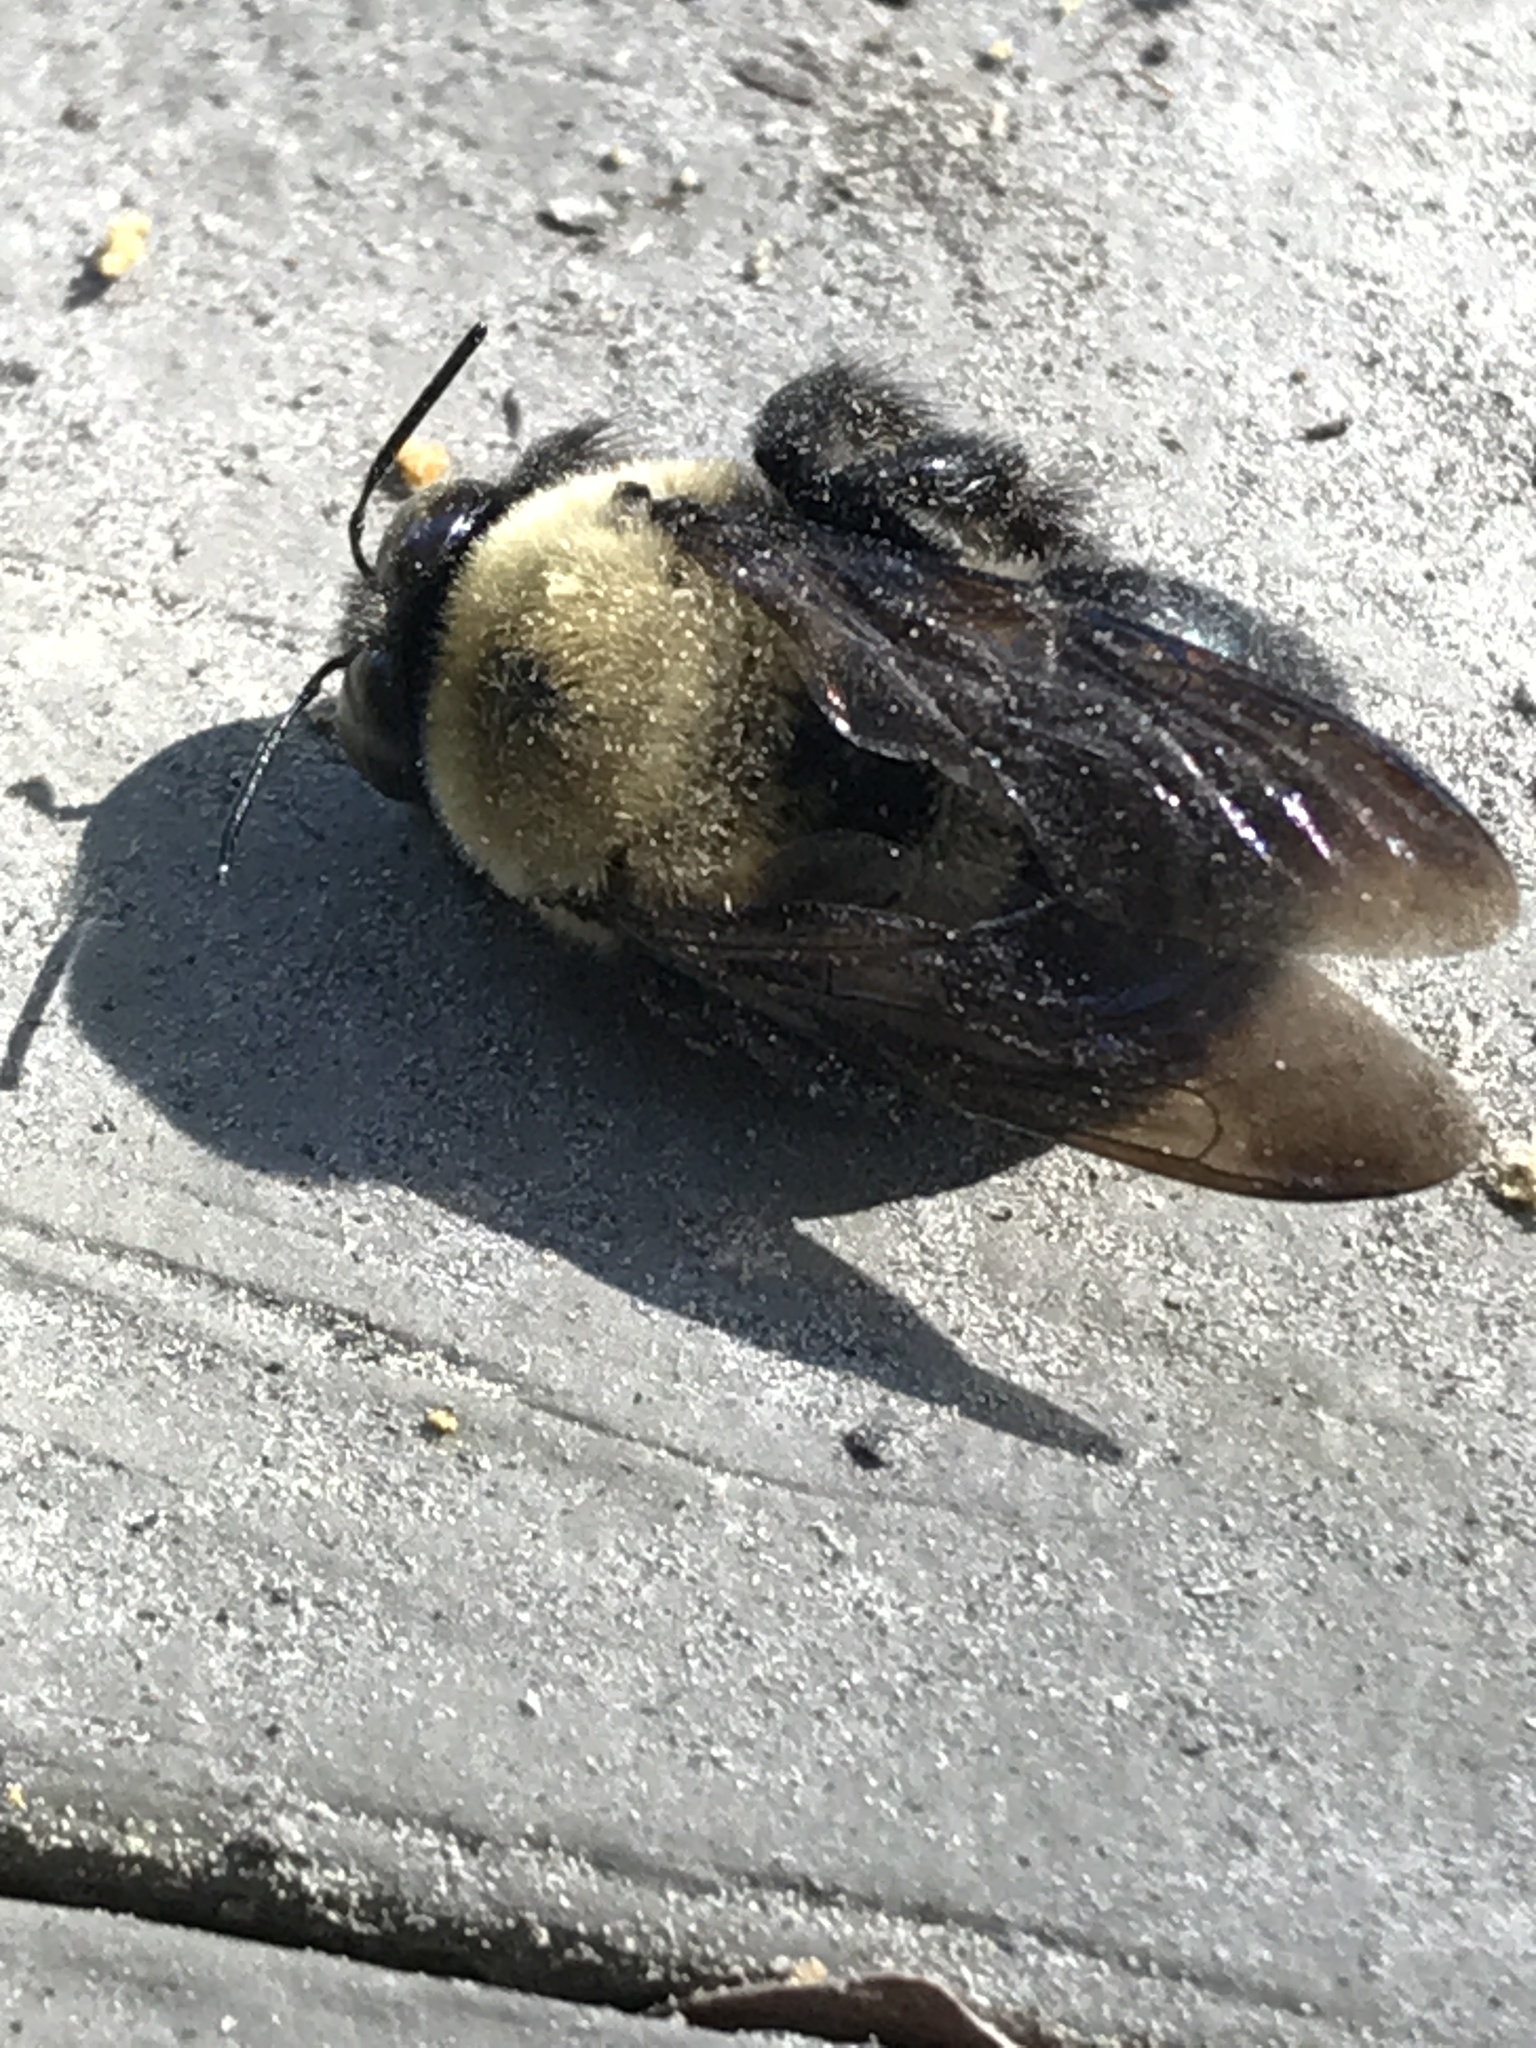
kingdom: Animalia
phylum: Arthropoda
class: Insecta
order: Hymenoptera
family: Apidae
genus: Xylocopa
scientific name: Xylocopa virginica
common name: Carpenter bee
